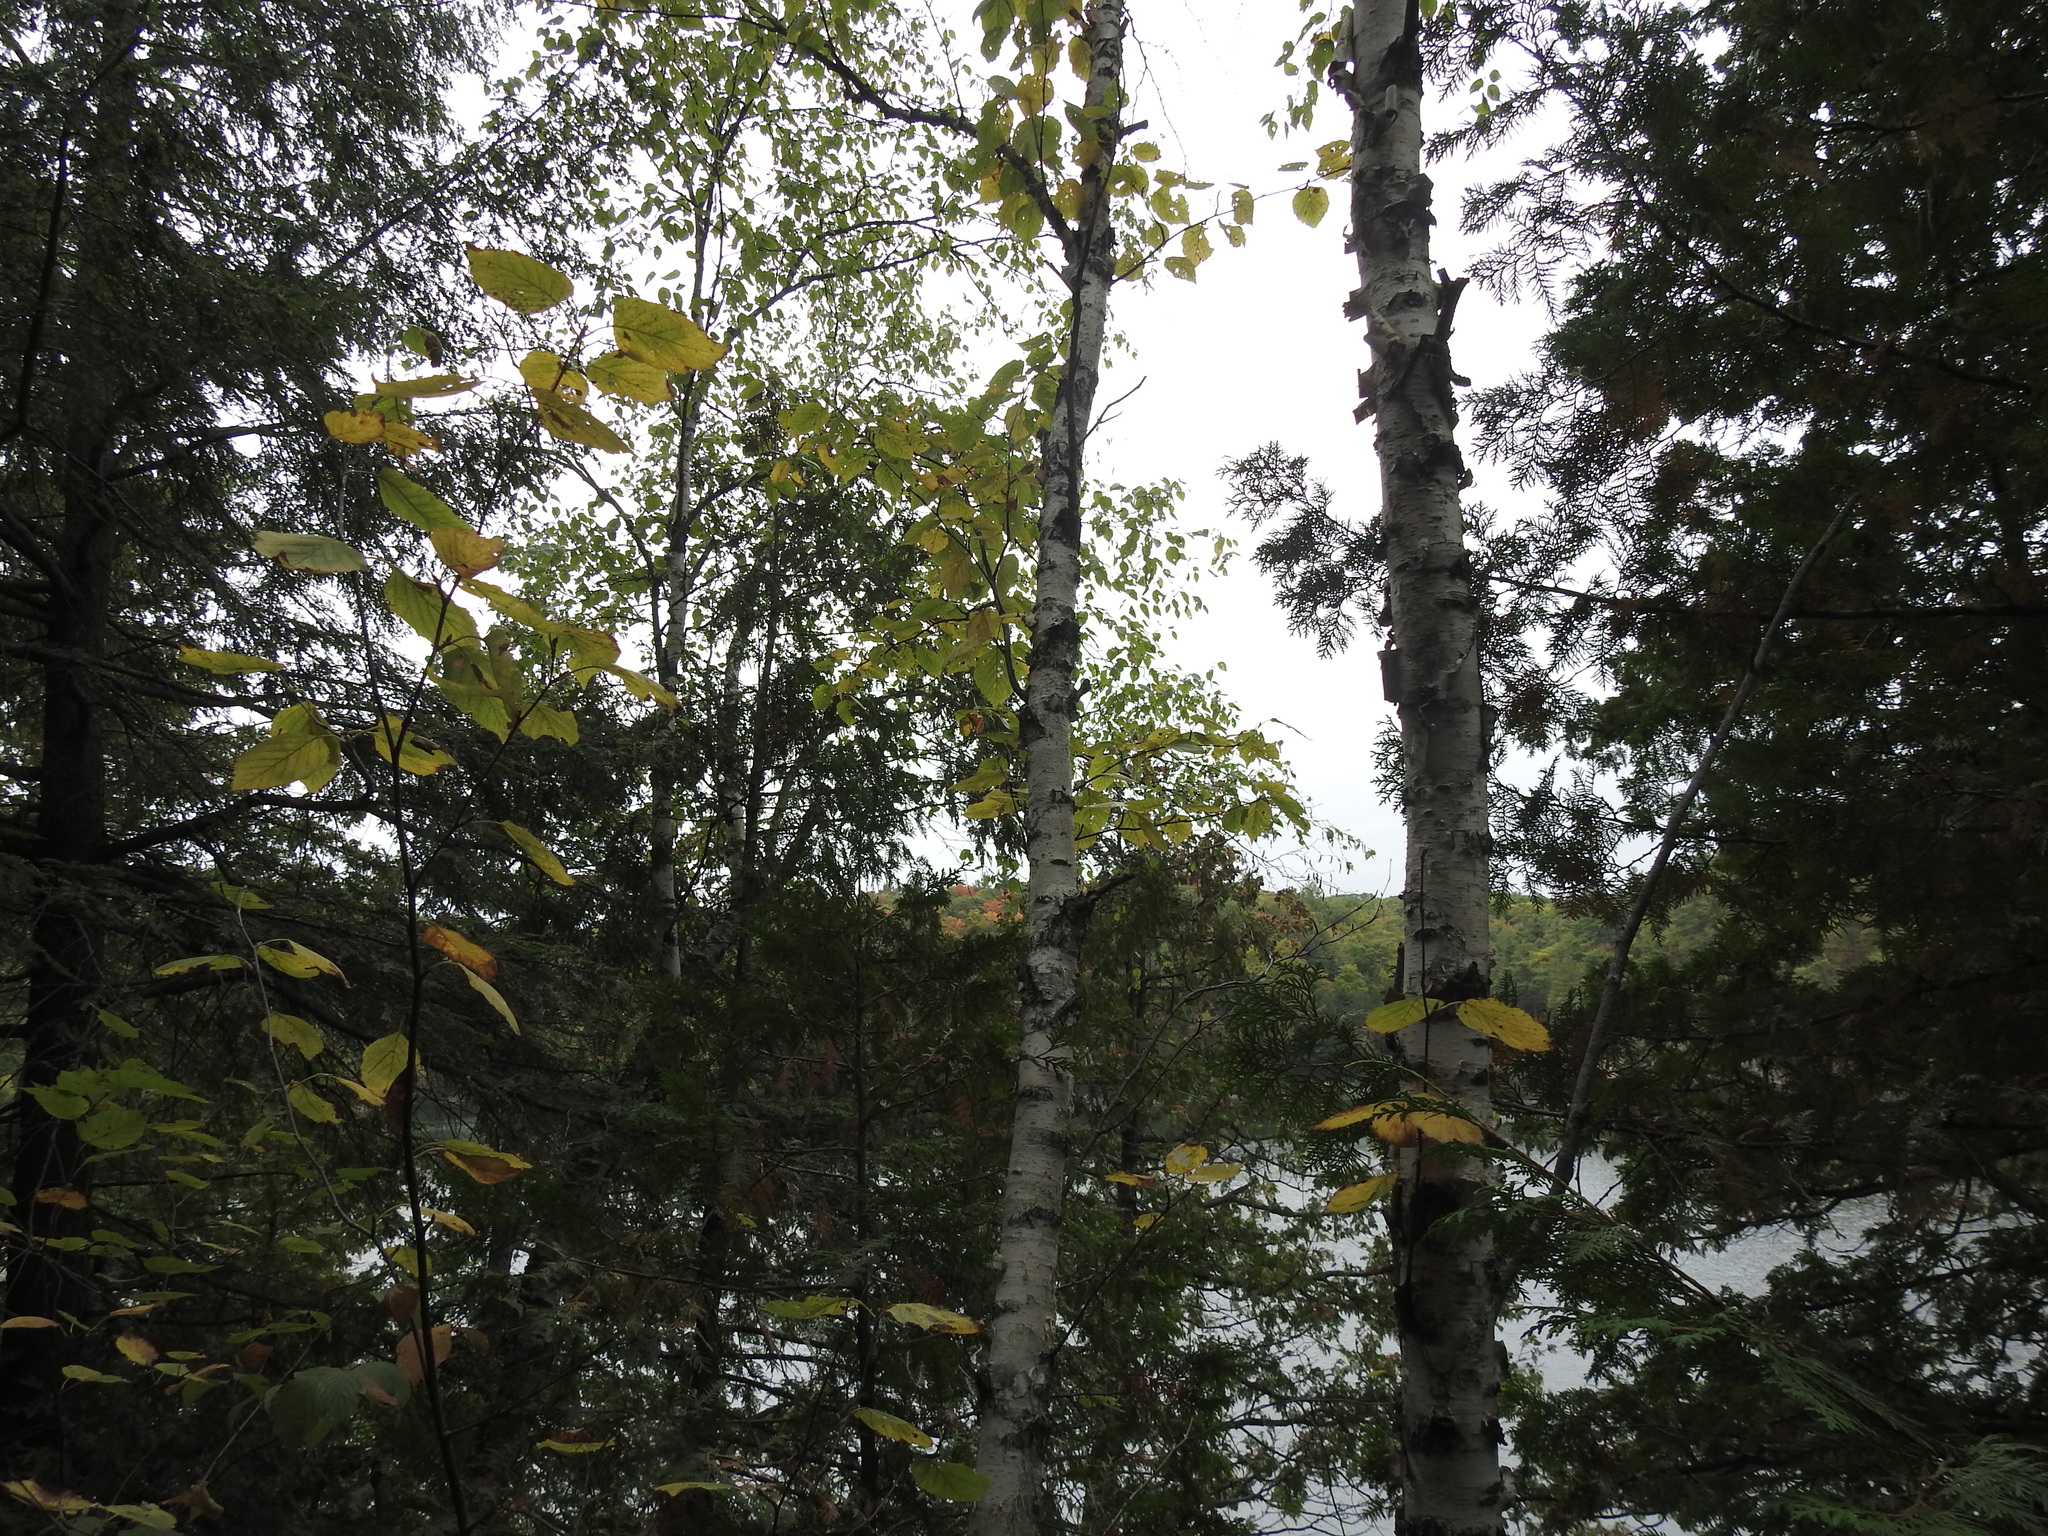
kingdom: Plantae
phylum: Tracheophyta
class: Magnoliopsida
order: Fagales
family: Betulaceae
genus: Betula
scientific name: Betula papyrifera
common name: Paper birch
